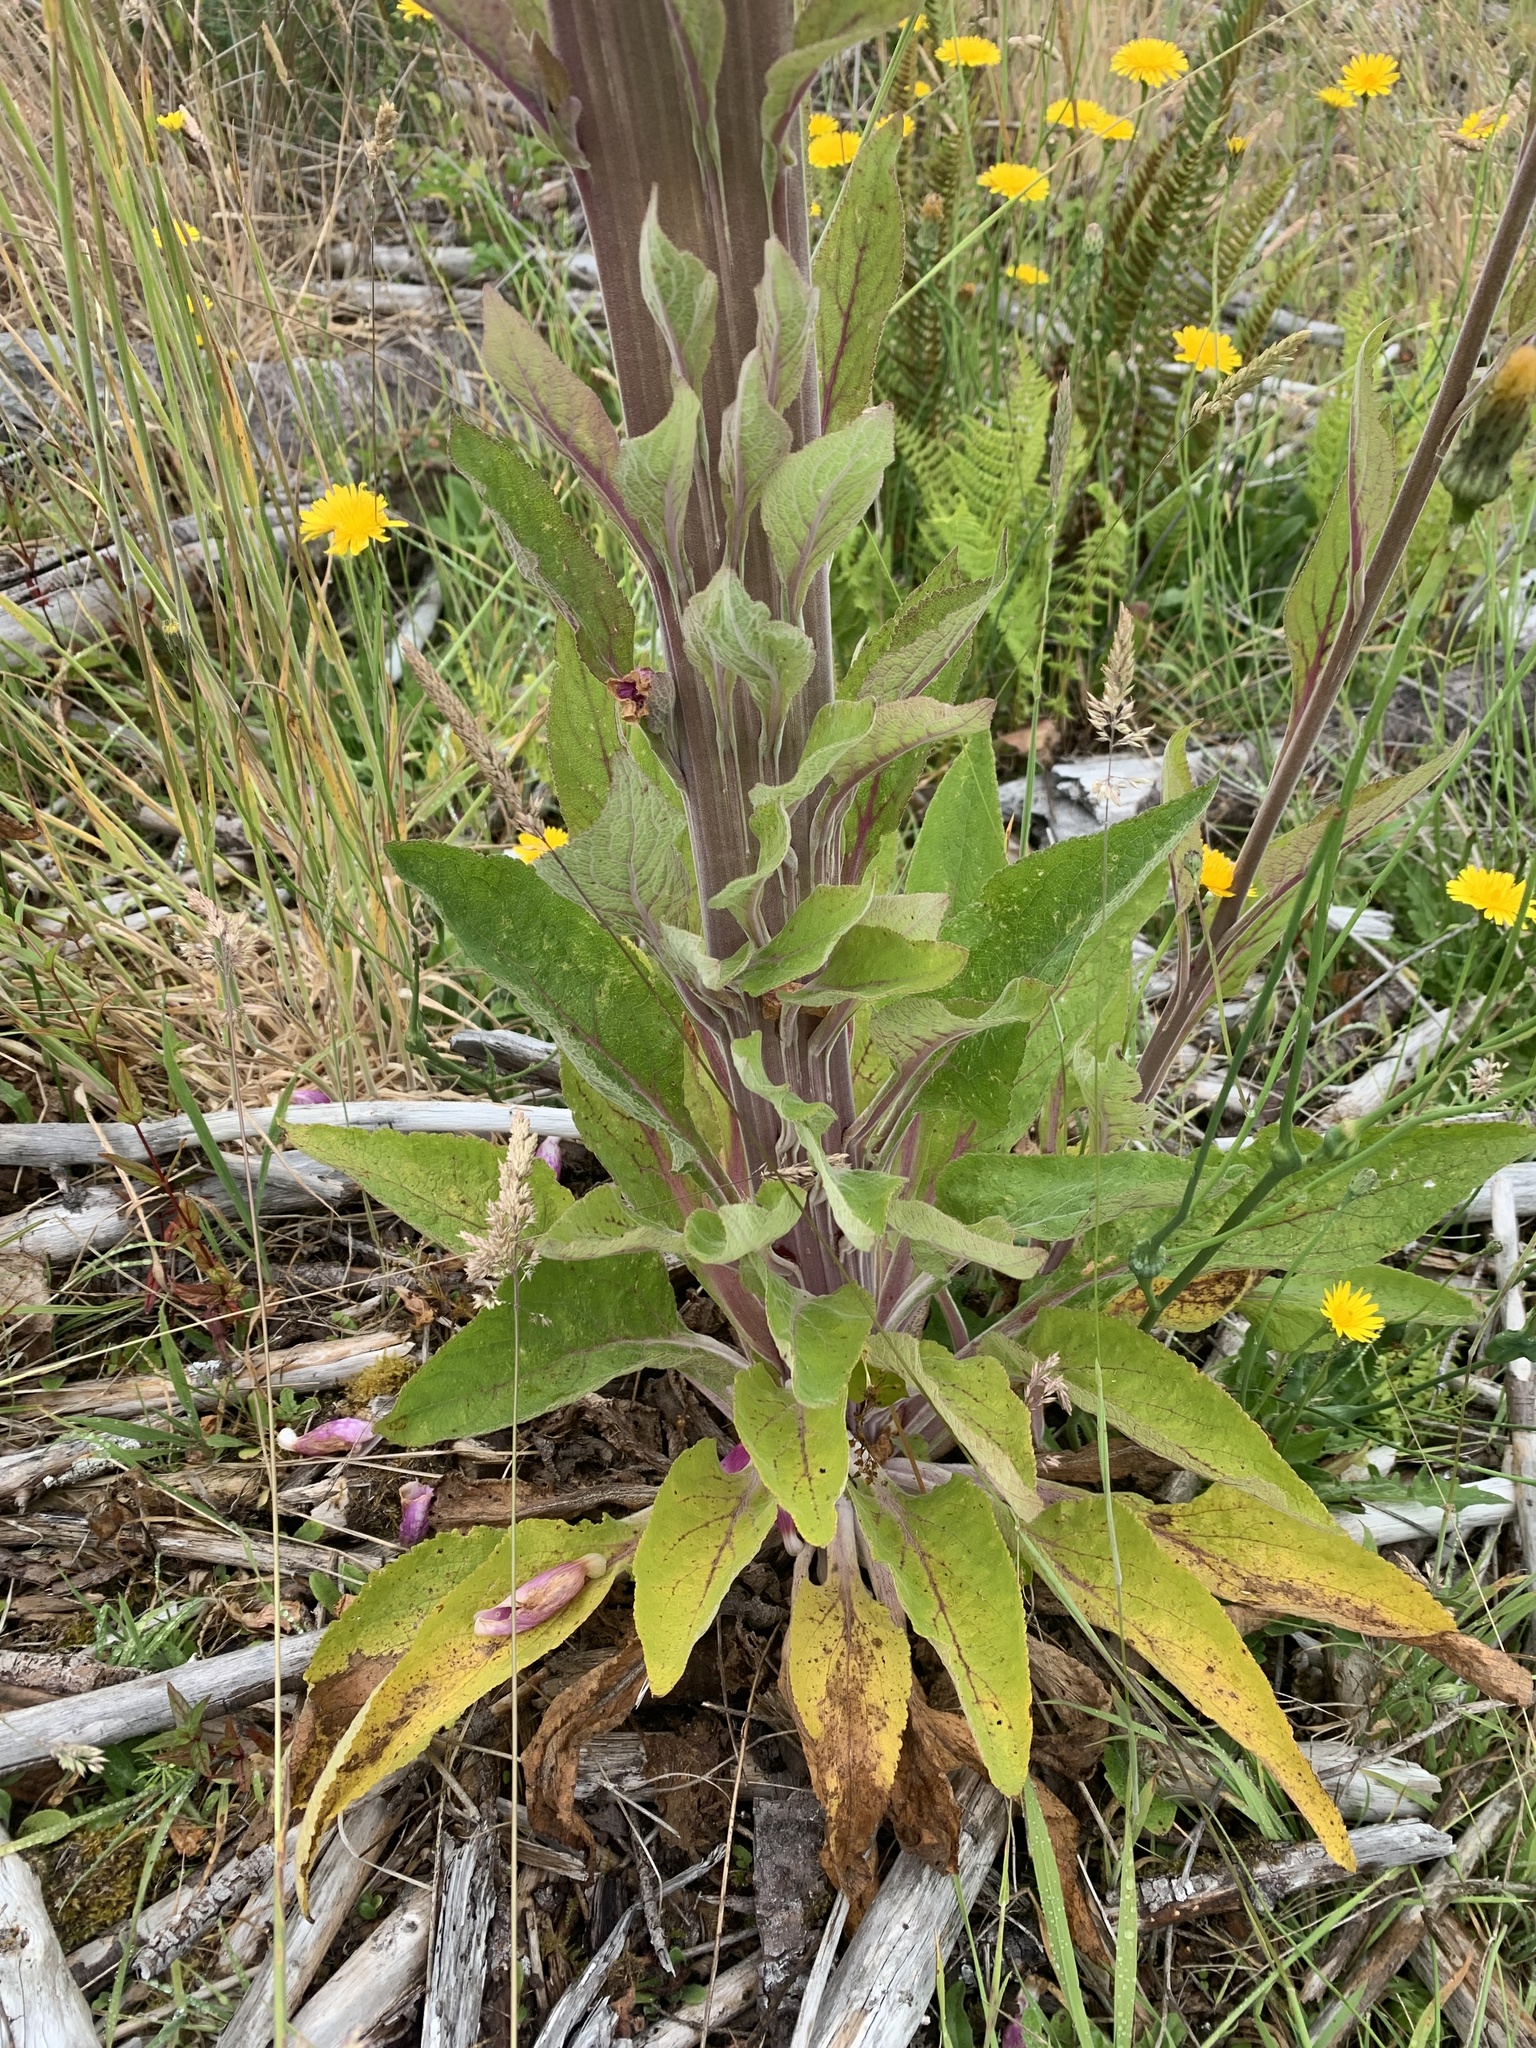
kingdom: Plantae
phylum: Tracheophyta
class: Magnoliopsida
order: Lamiales
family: Plantaginaceae
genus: Digitalis
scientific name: Digitalis purpurea
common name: Foxglove
